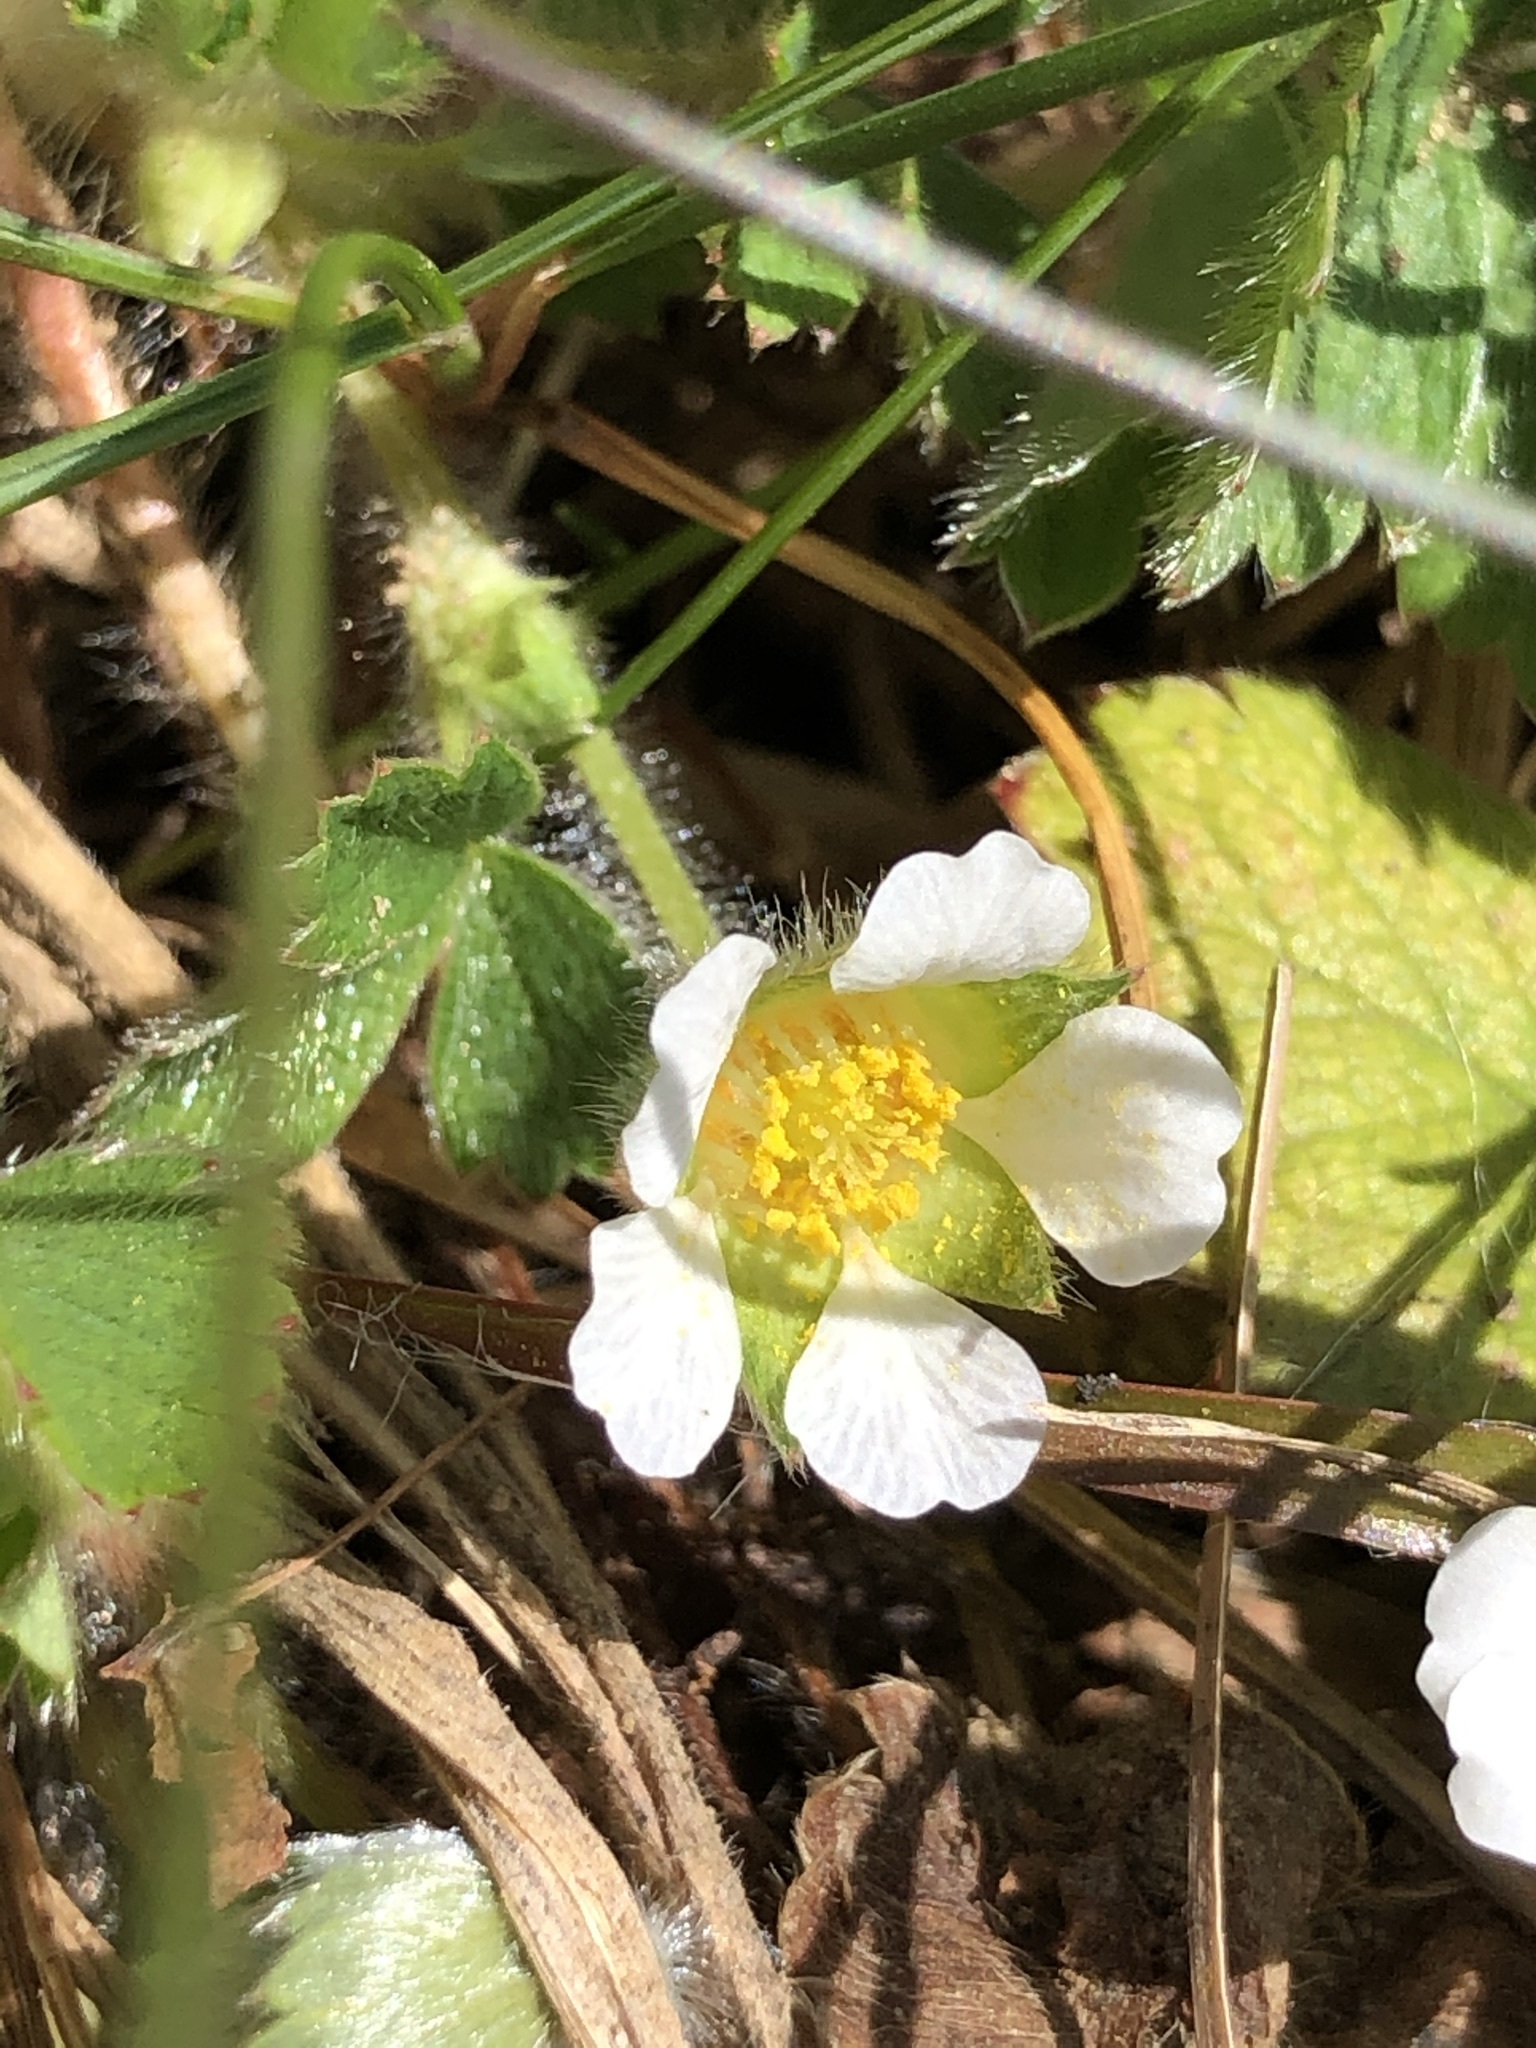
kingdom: Plantae
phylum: Tracheophyta
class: Magnoliopsida
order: Rosales
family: Rosaceae
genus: Potentilla
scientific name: Potentilla sterilis
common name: Barren strawberry
